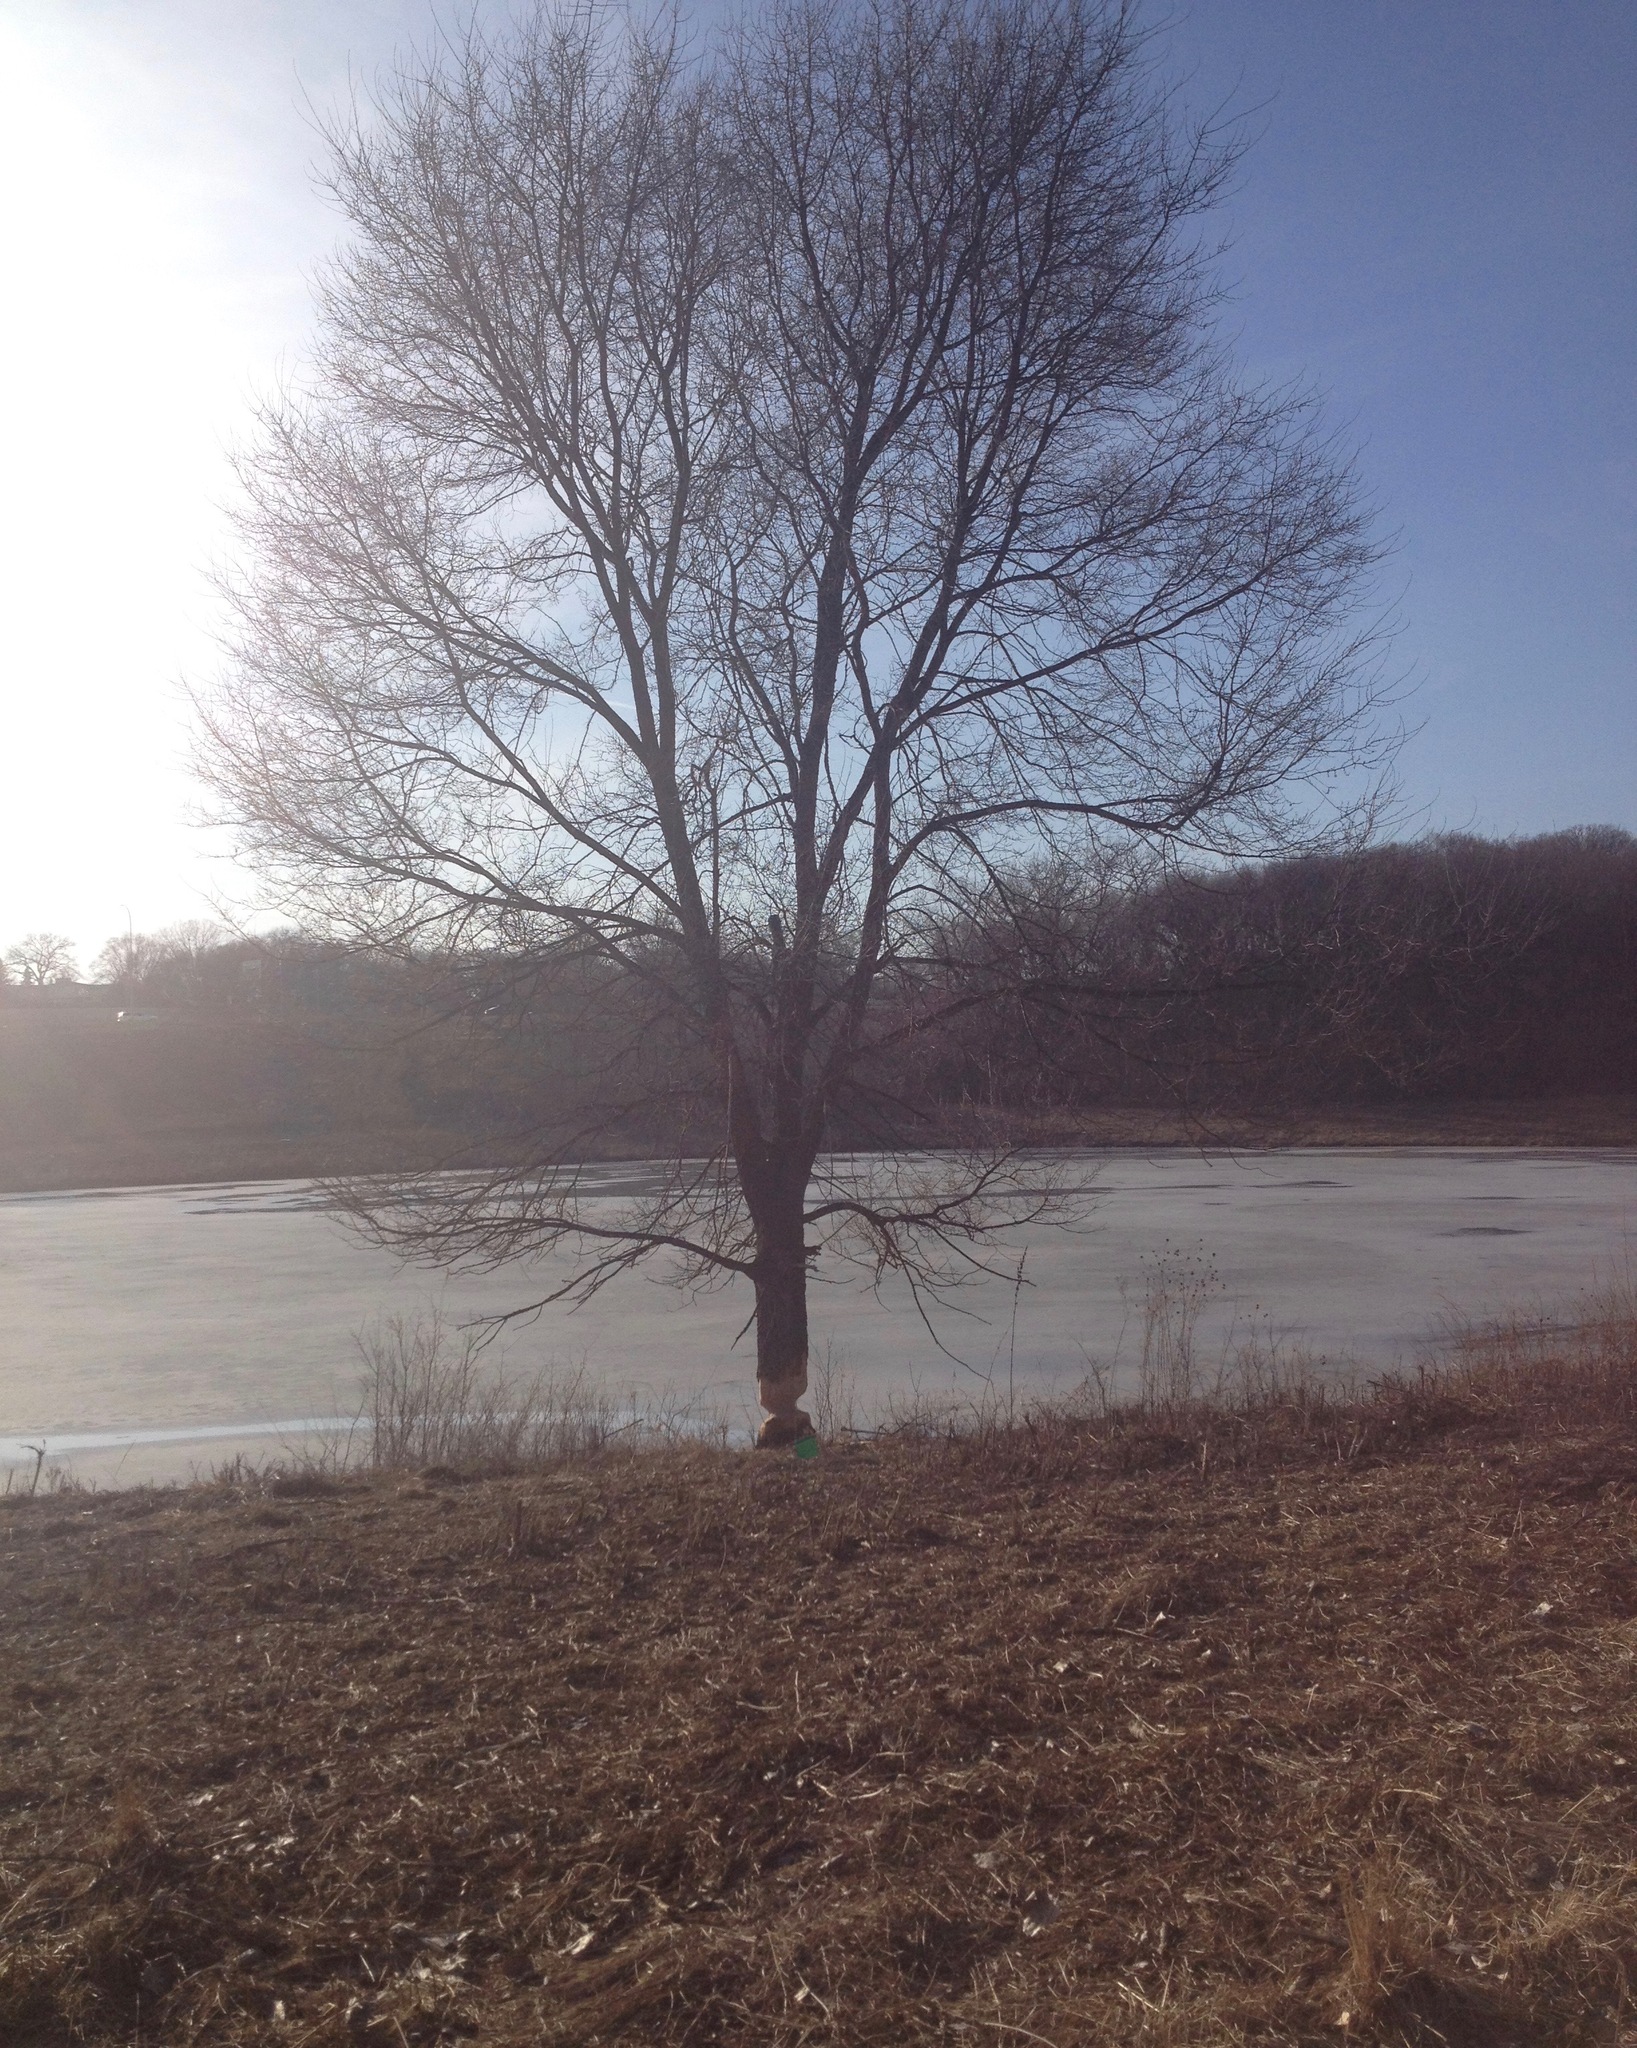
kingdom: Animalia
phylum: Chordata
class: Mammalia
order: Rodentia
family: Castoridae
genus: Castor
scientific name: Castor canadensis
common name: American beaver
